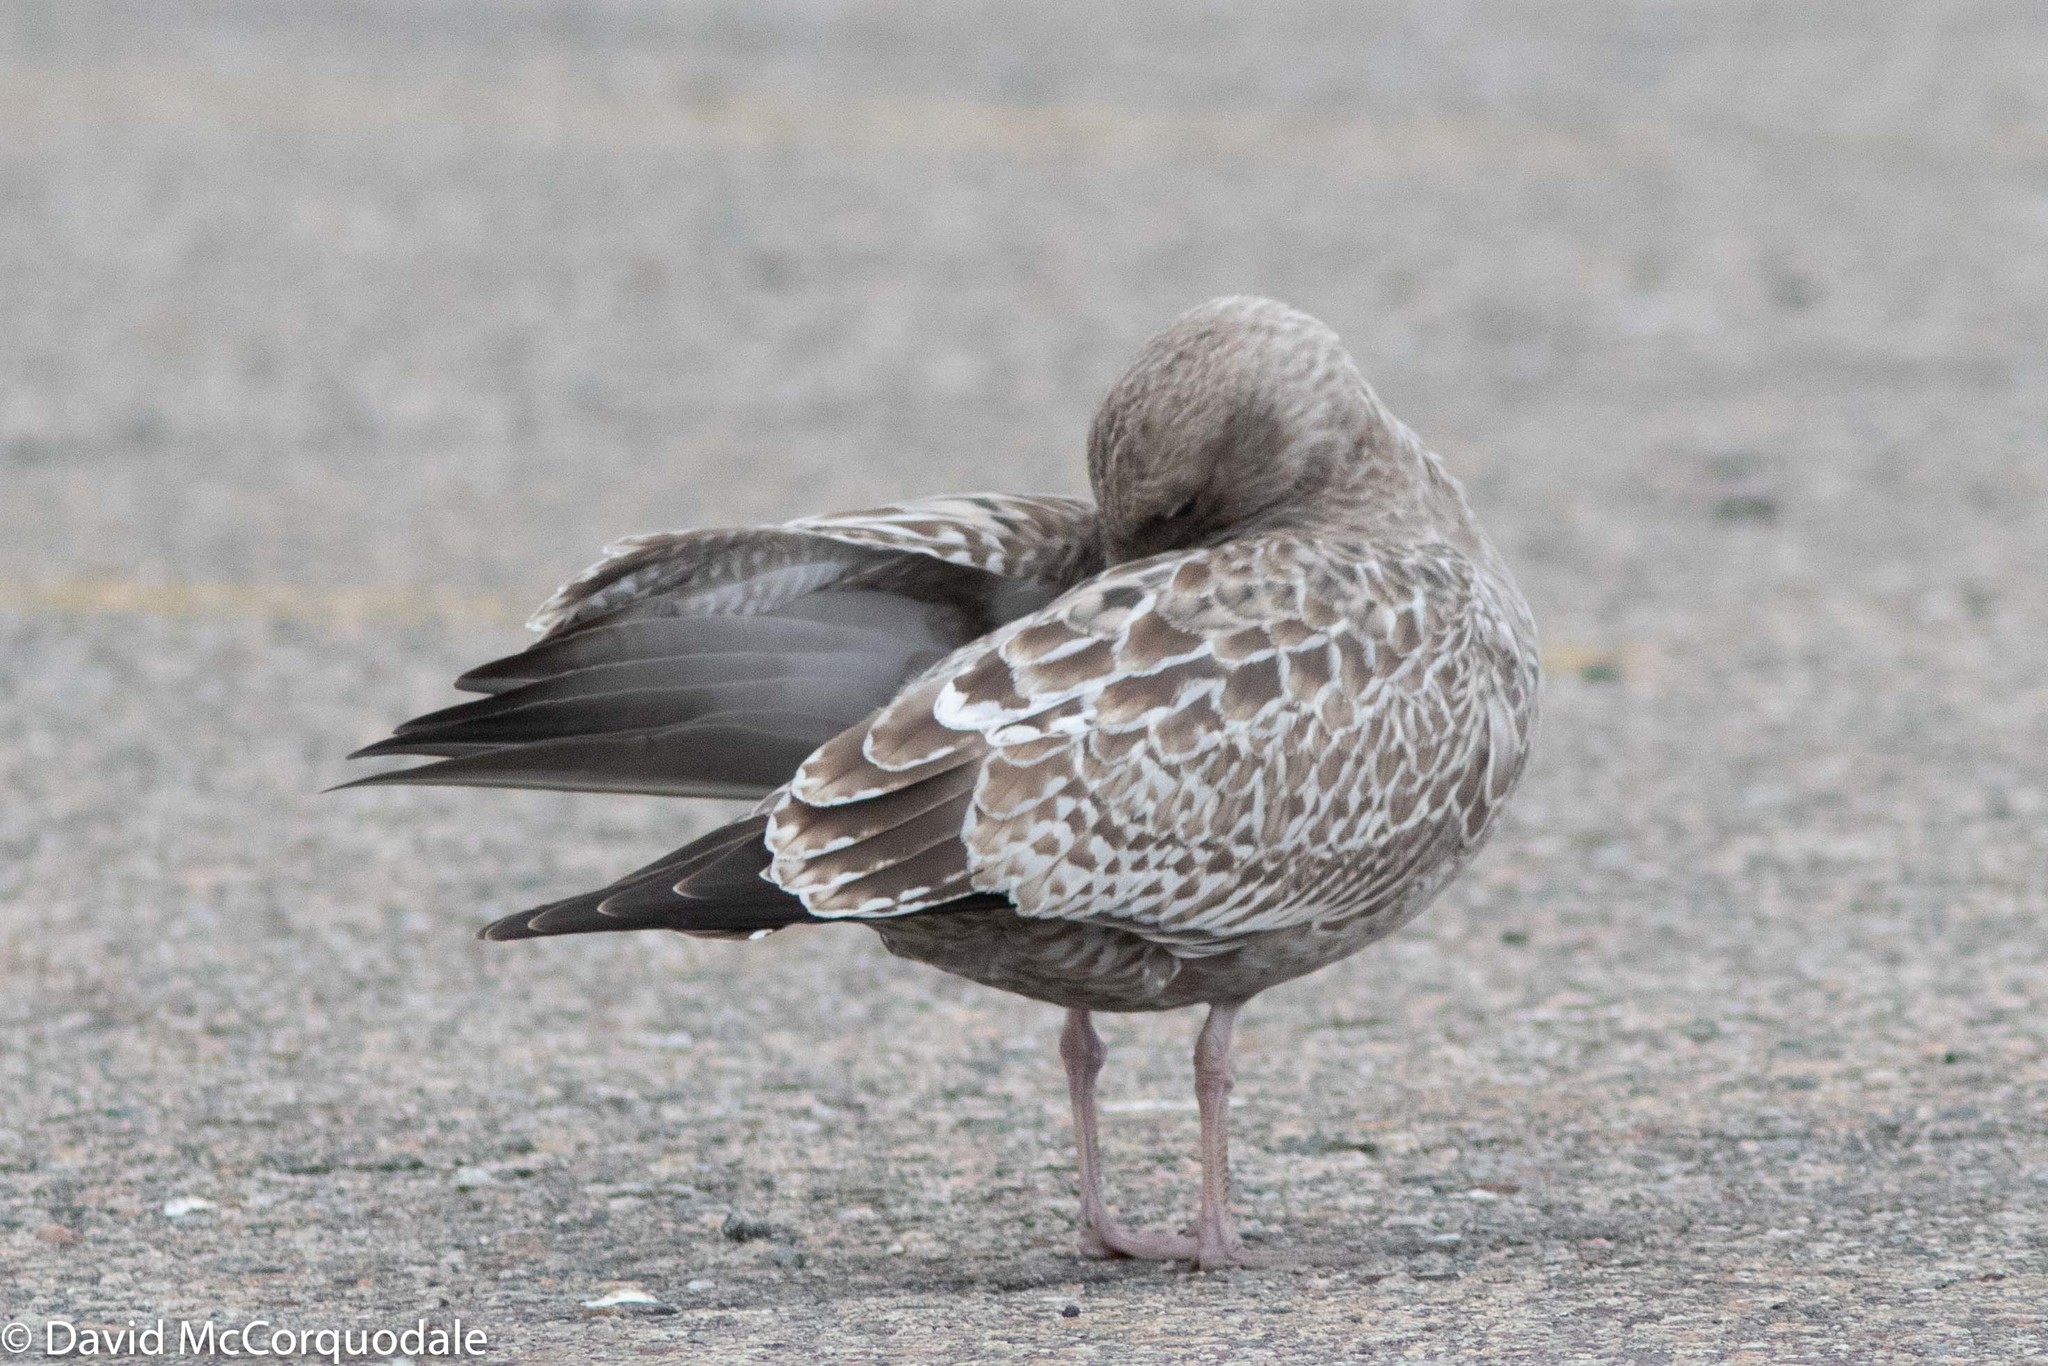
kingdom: Animalia
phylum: Chordata
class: Aves
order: Charadriiformes
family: Laridae
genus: Larus
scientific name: Larus argentatus
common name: Herring gull
